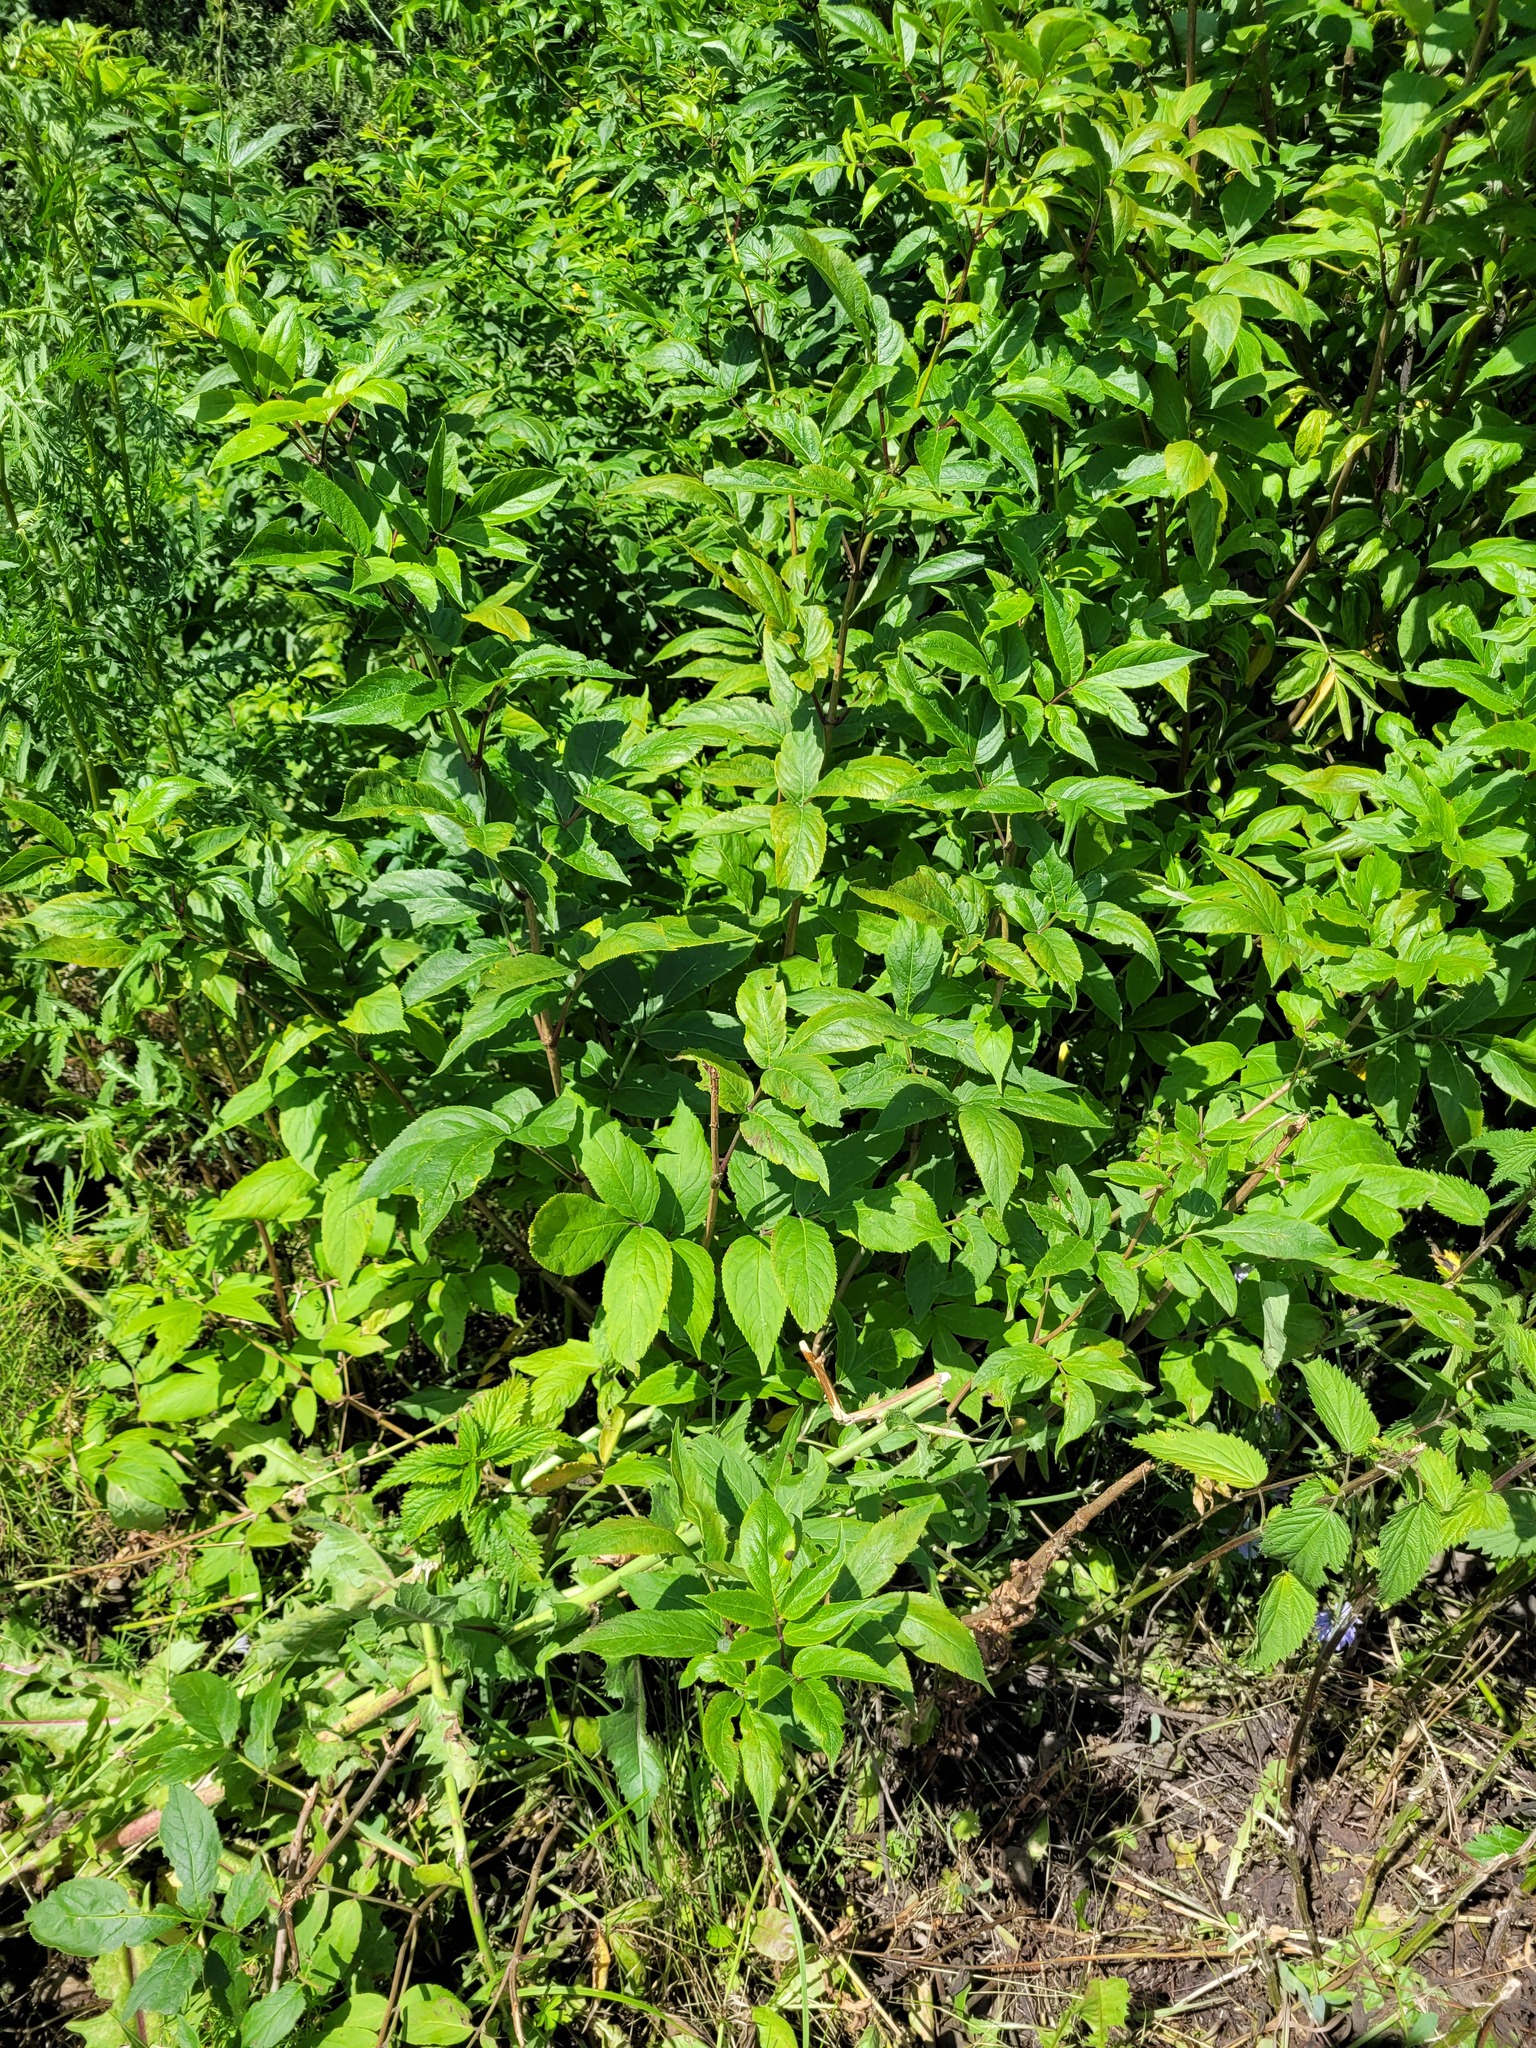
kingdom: Plantae
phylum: Tracheophyta
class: Magnoliopsida
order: Dipsacales
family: Viburnaceae
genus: Sambucus
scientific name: Sambucus racemosa
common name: Red-berried elder
